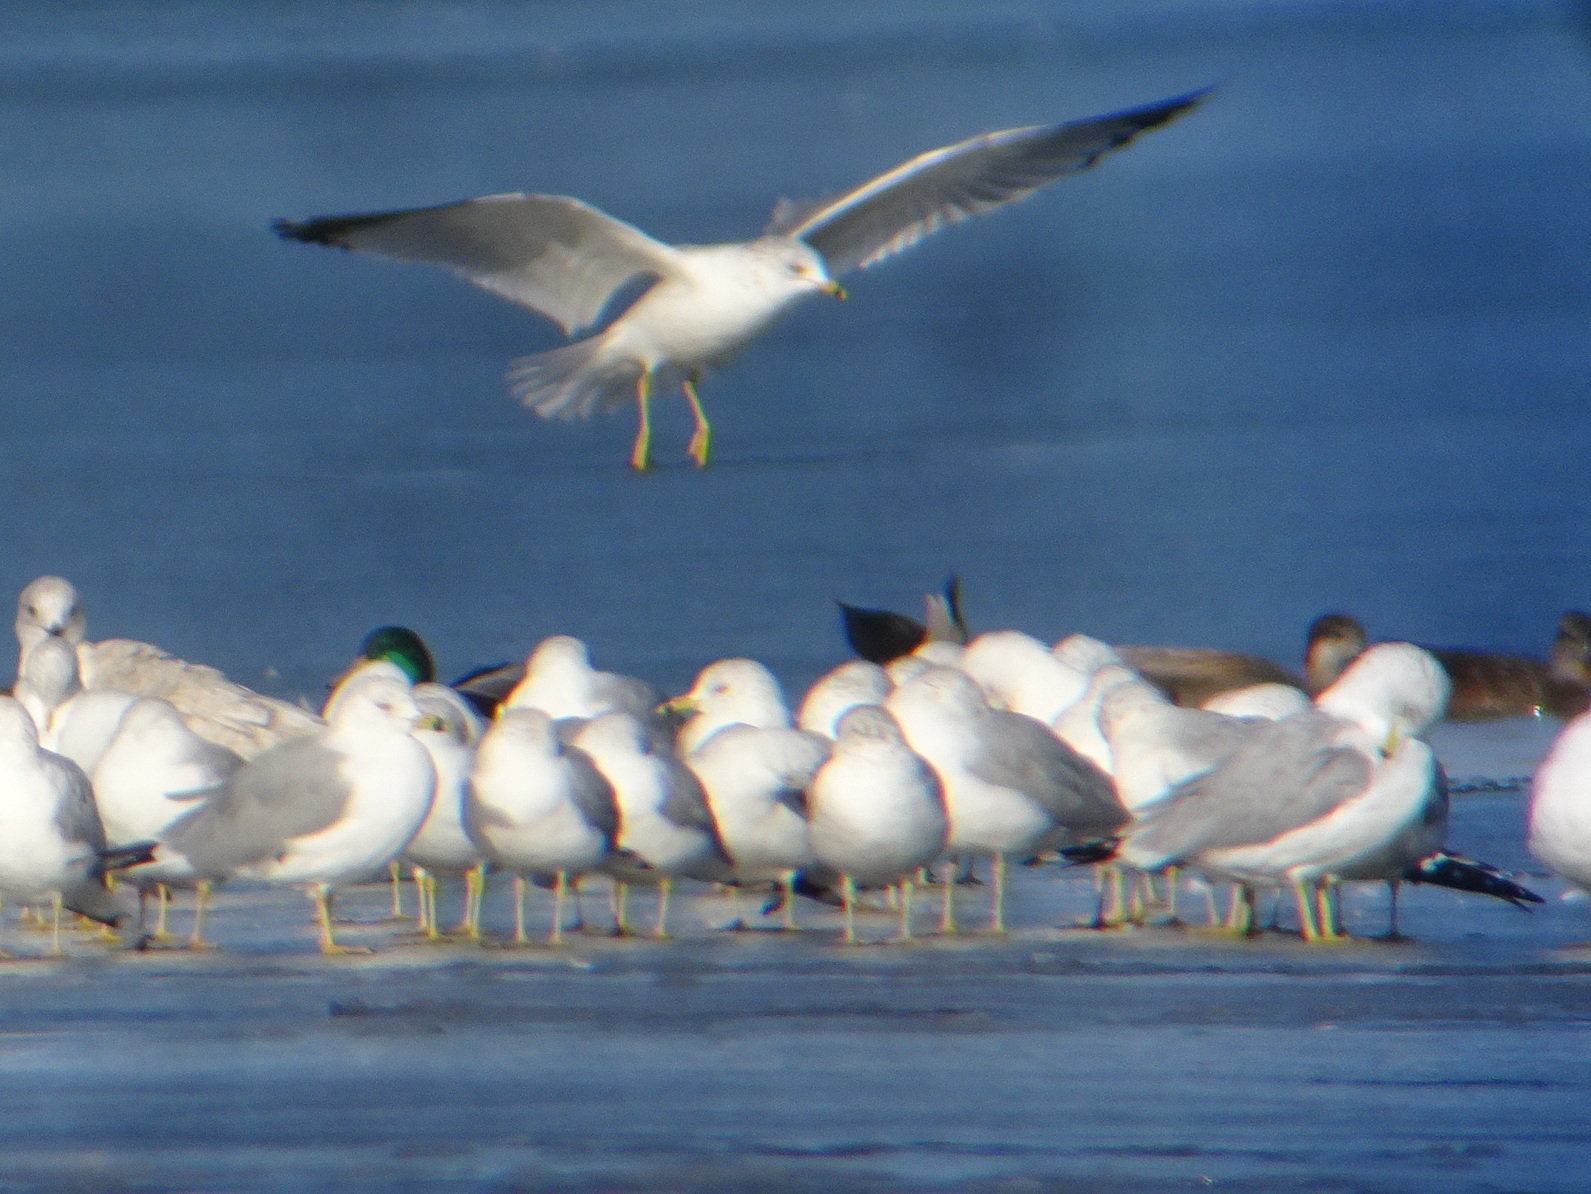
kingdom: Animalia
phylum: Chordata
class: Aves
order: Charadriiformes
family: Laridae
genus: Larus
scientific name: Larus delawarensis
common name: Ring-billed gull
